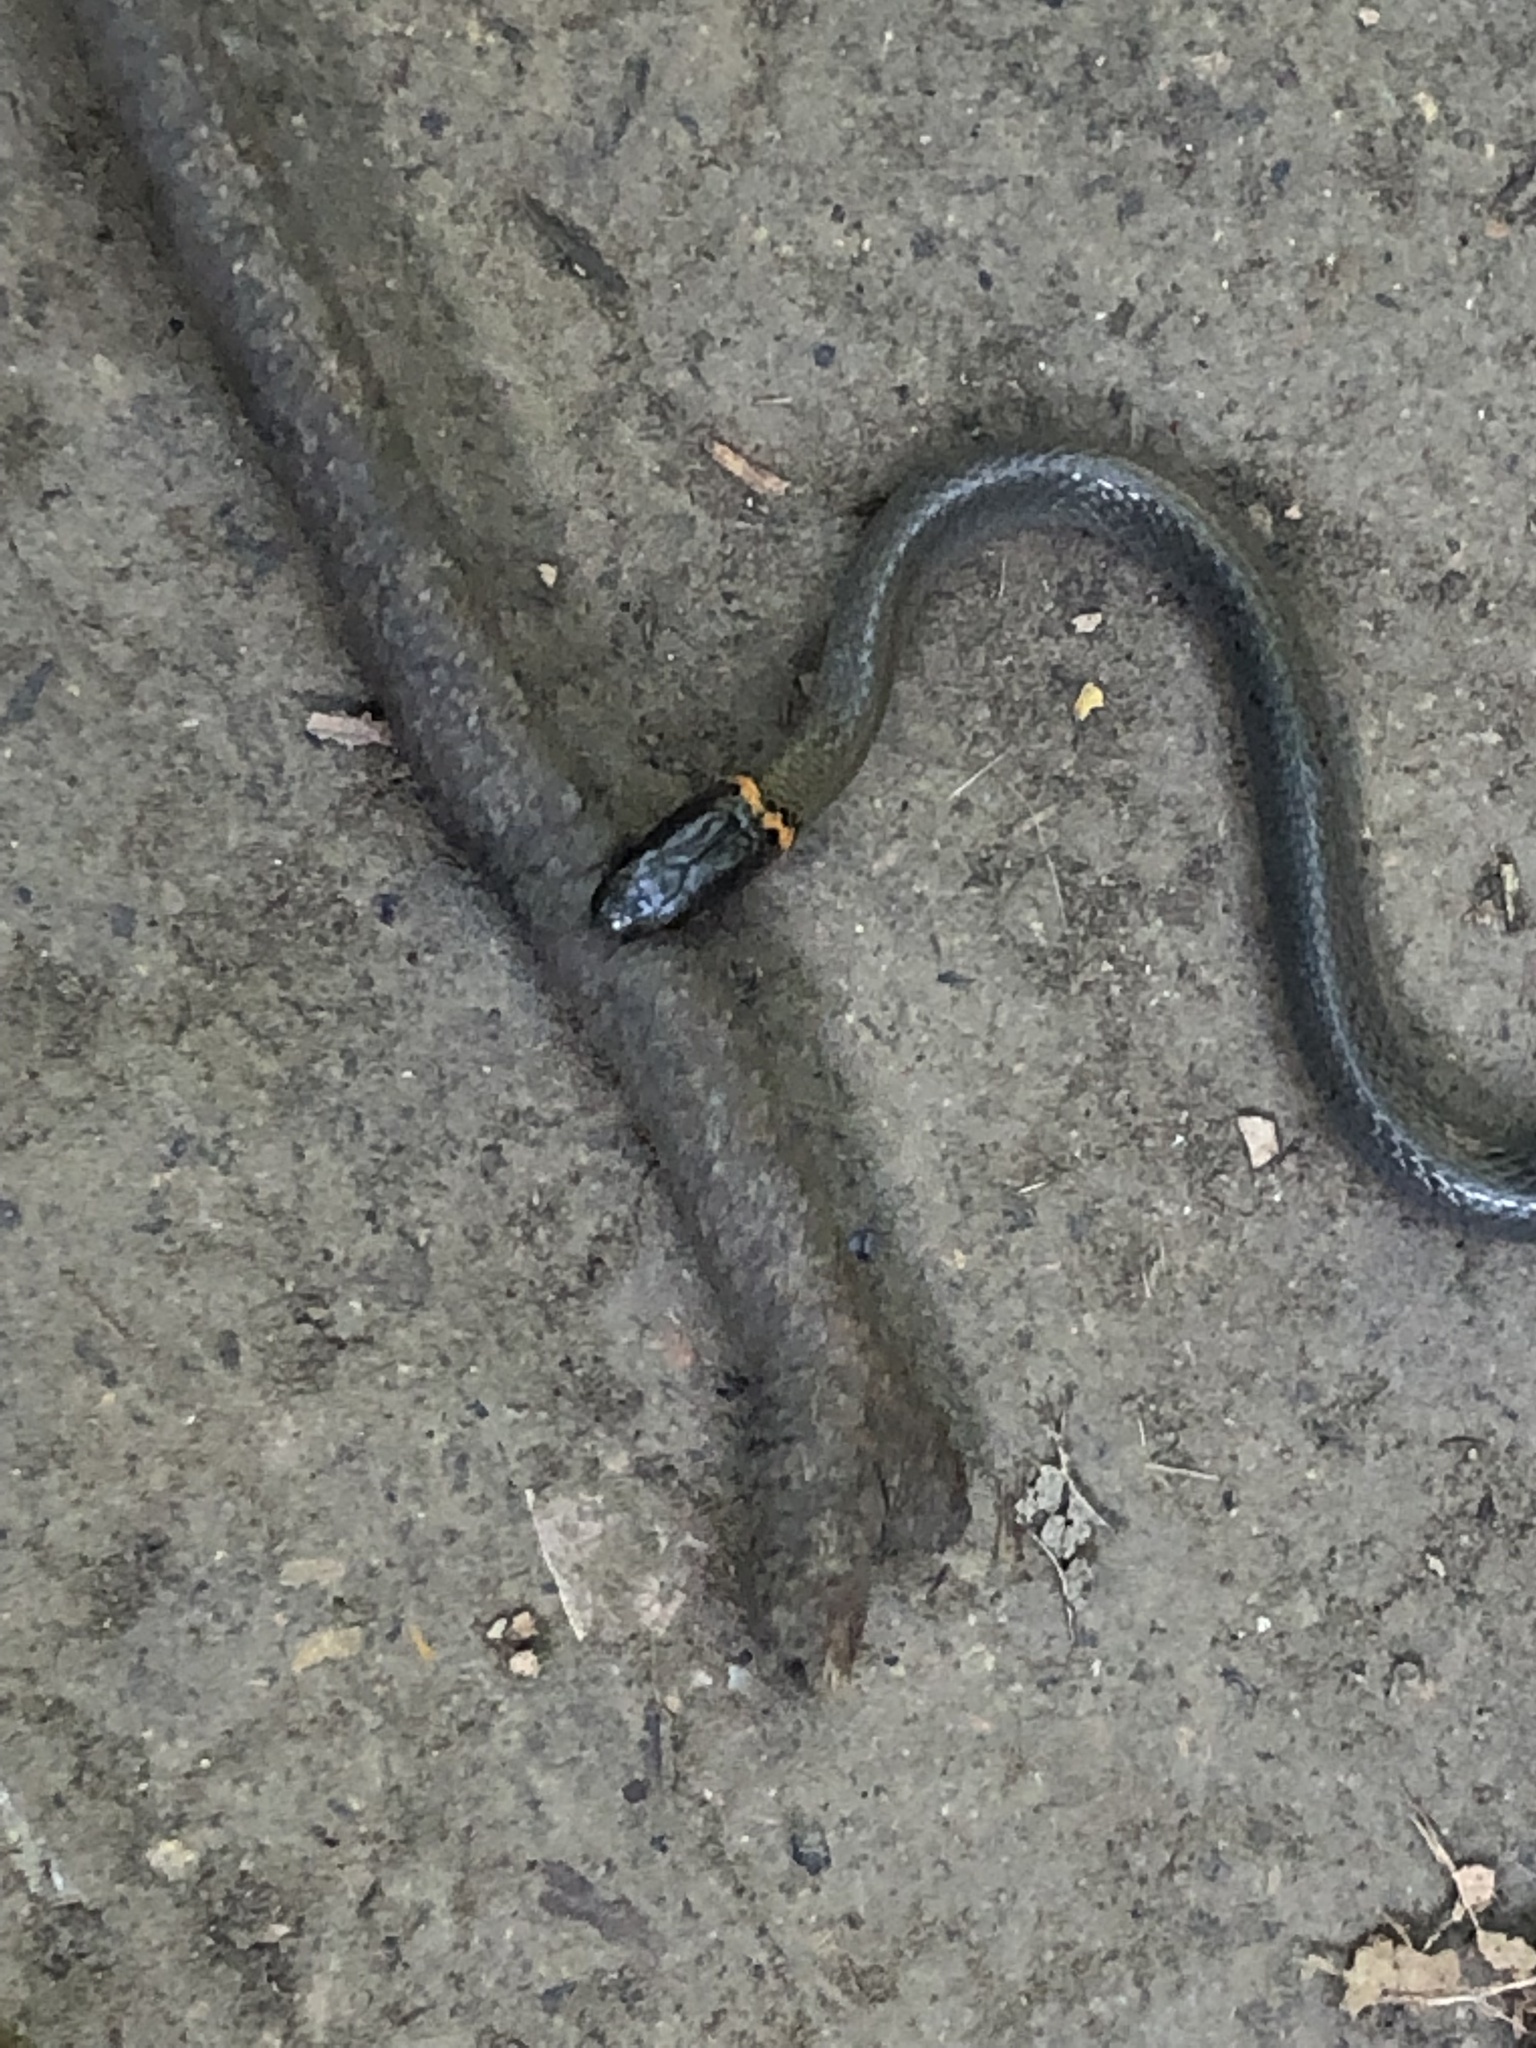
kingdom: Animalia
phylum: Chordata
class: Squamata
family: Colubridae
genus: Diadophis
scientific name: Diadophis punctatus
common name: Ringneck snake
